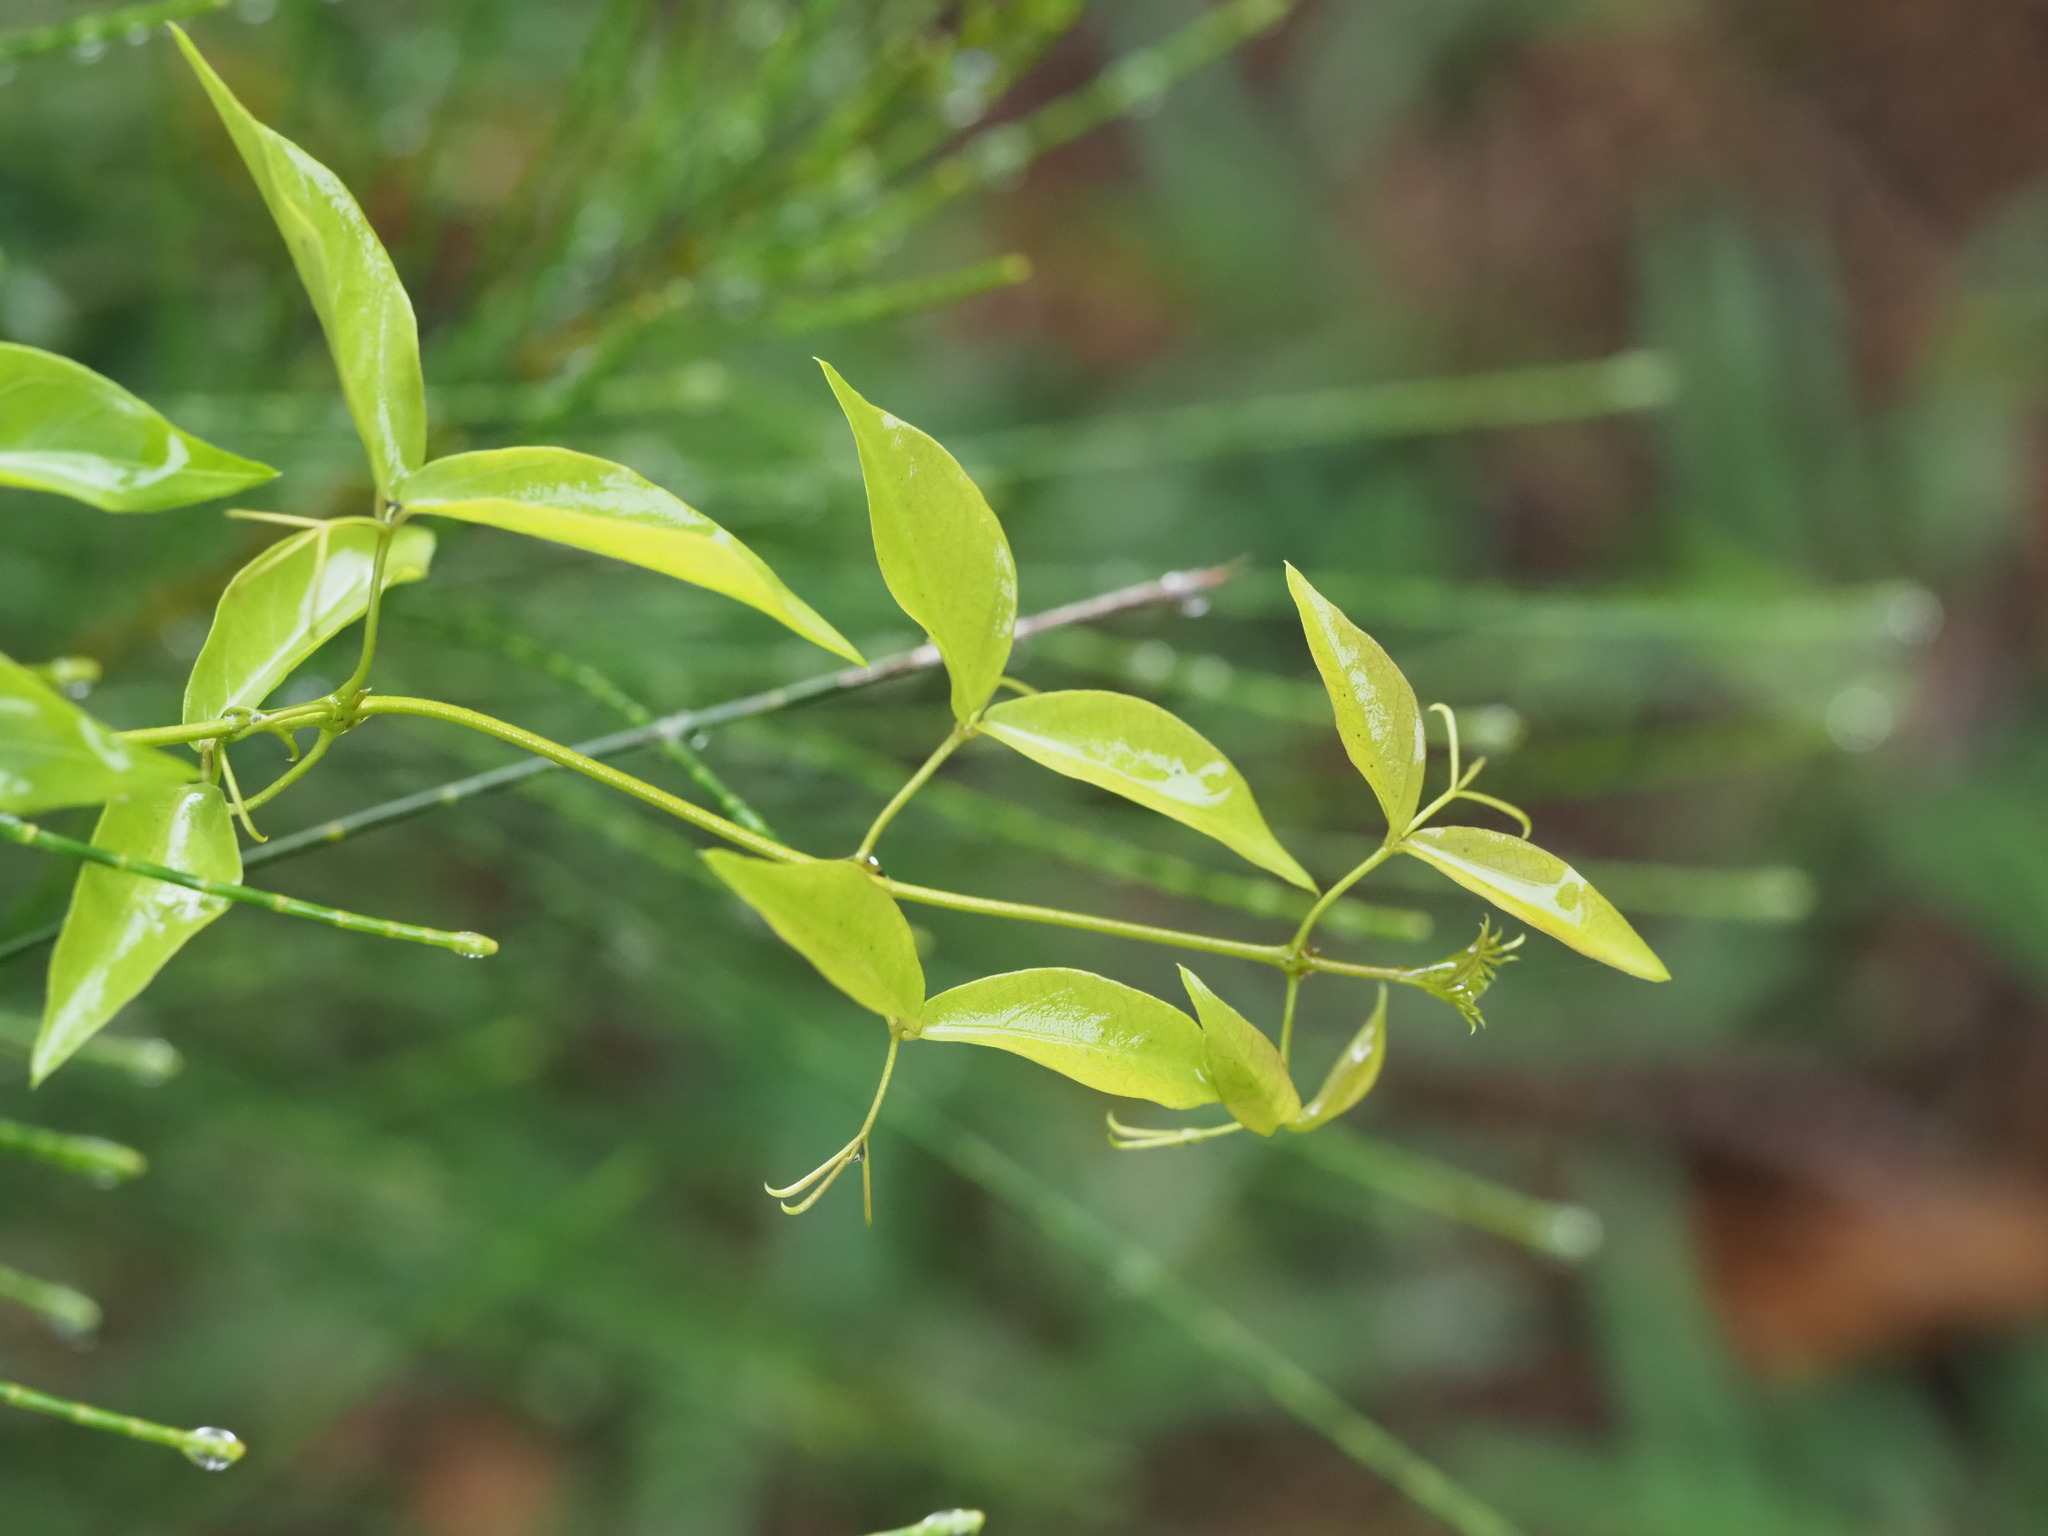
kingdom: Plantae
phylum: Tracheophyta
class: Magnoliopsida
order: Lamiales
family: Bignoniaceae
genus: Dolichandra
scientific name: Dolichandra unguis-cati
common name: Catclaw vine
